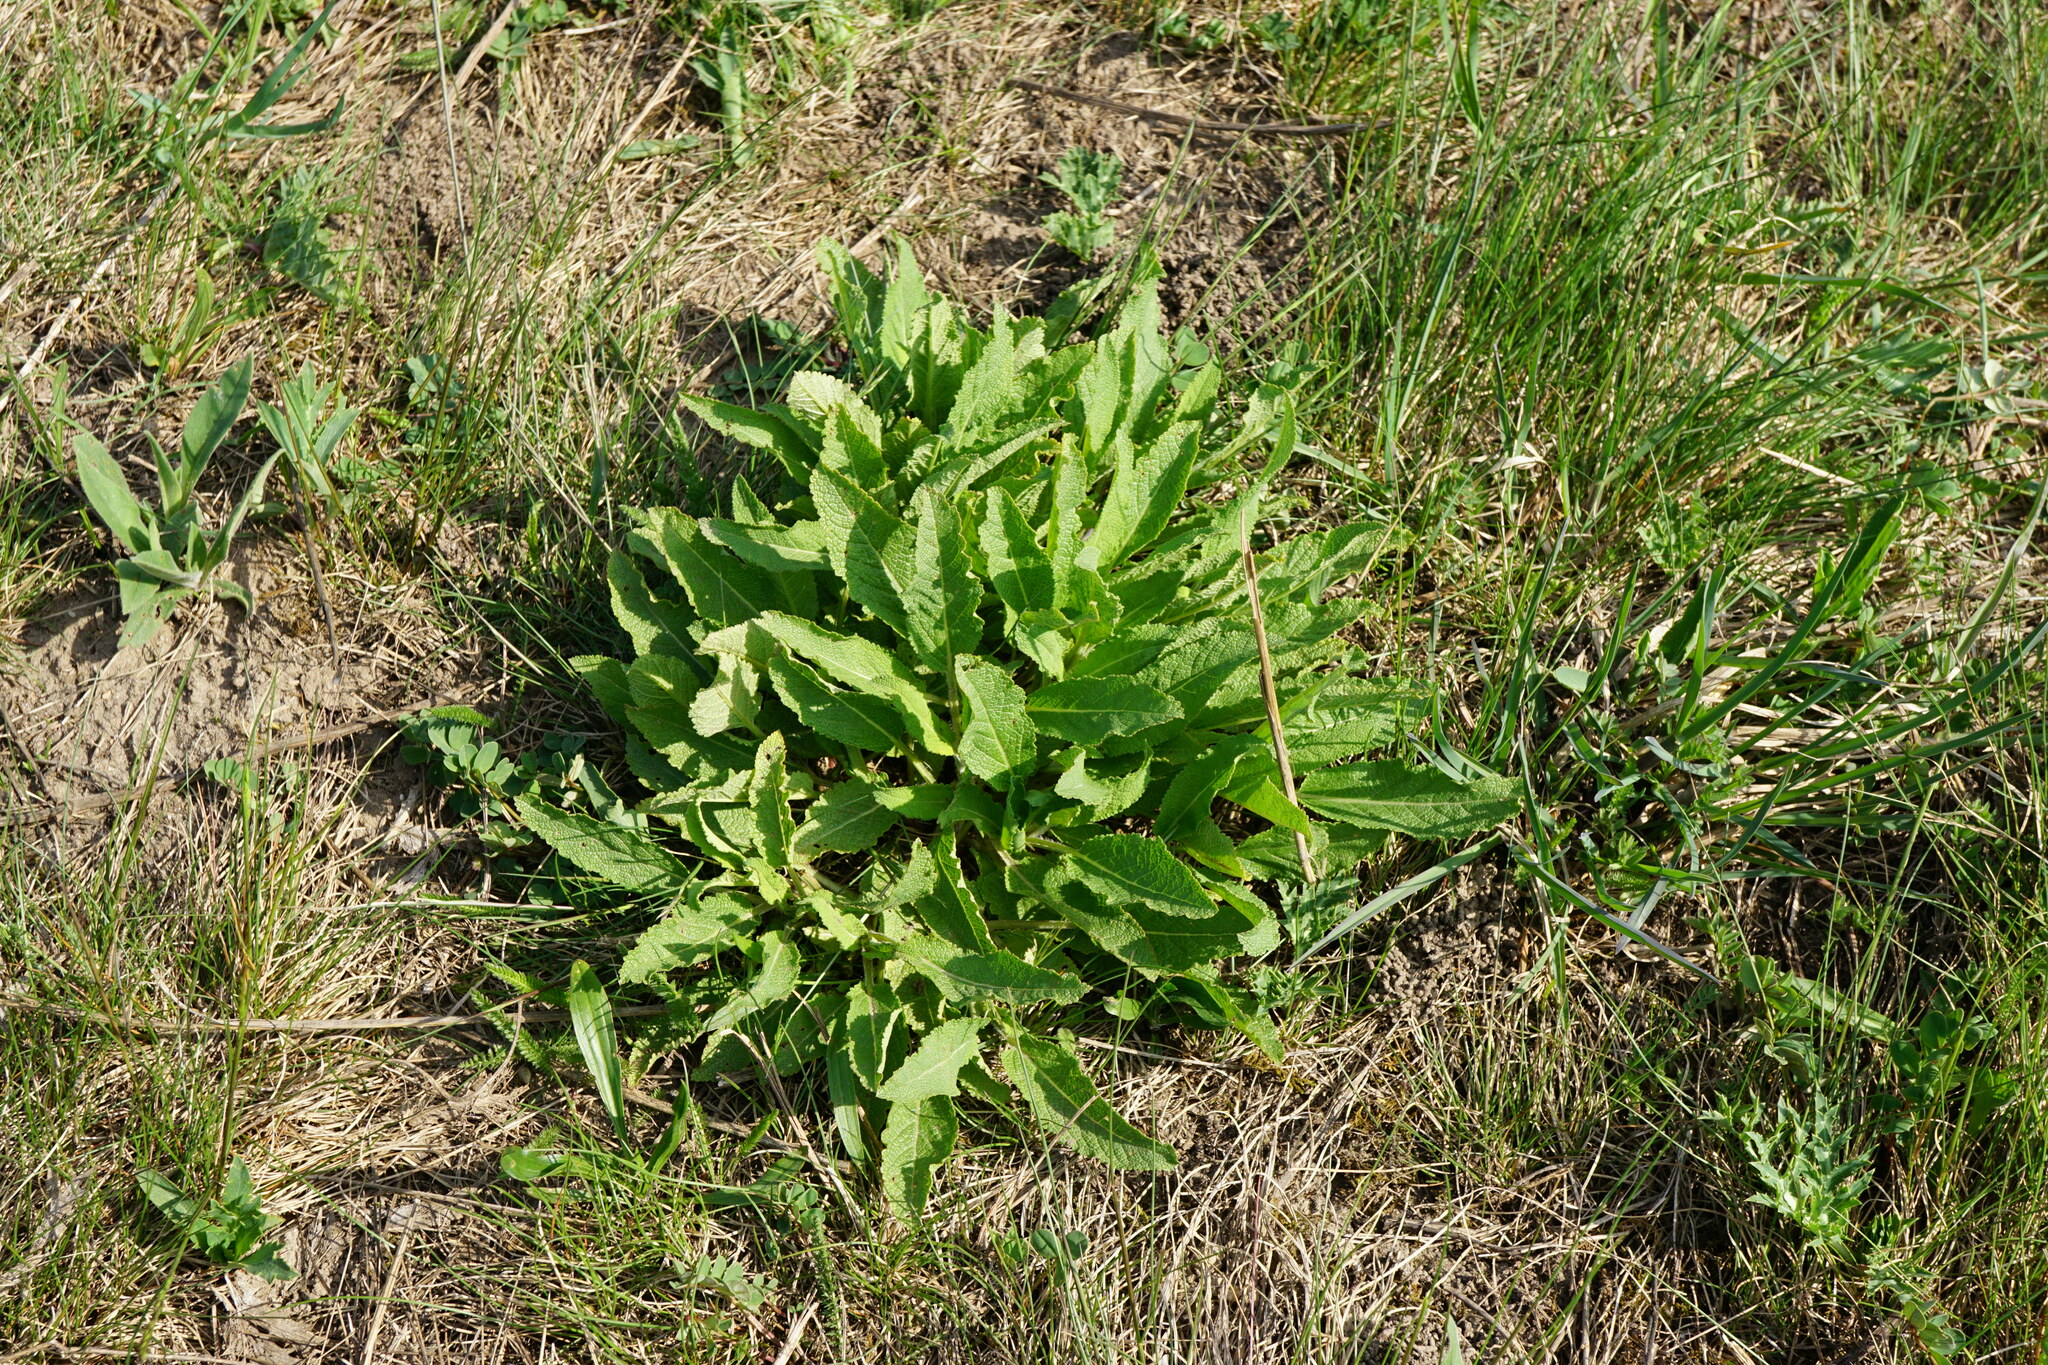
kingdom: Plantae
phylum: Tracheophyta
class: Magnoliopsida
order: Lamiales
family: Lamiaceae
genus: Salvia
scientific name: Salvia nemorosa
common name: Balkan clary
